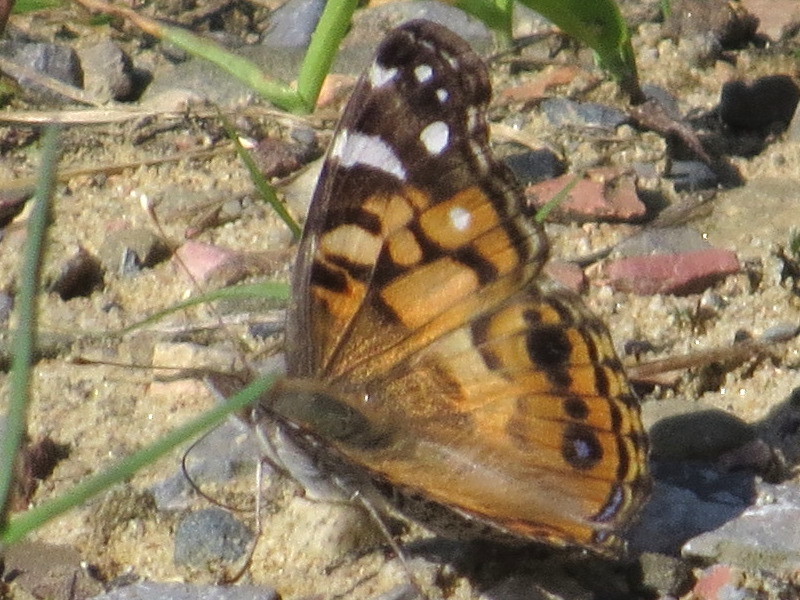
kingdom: Animalia
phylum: Arthropoda
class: Insecta
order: Lepidoptera
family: Nymphalidae
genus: Vanessa
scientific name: Vanessa virginiensis
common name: American lady
